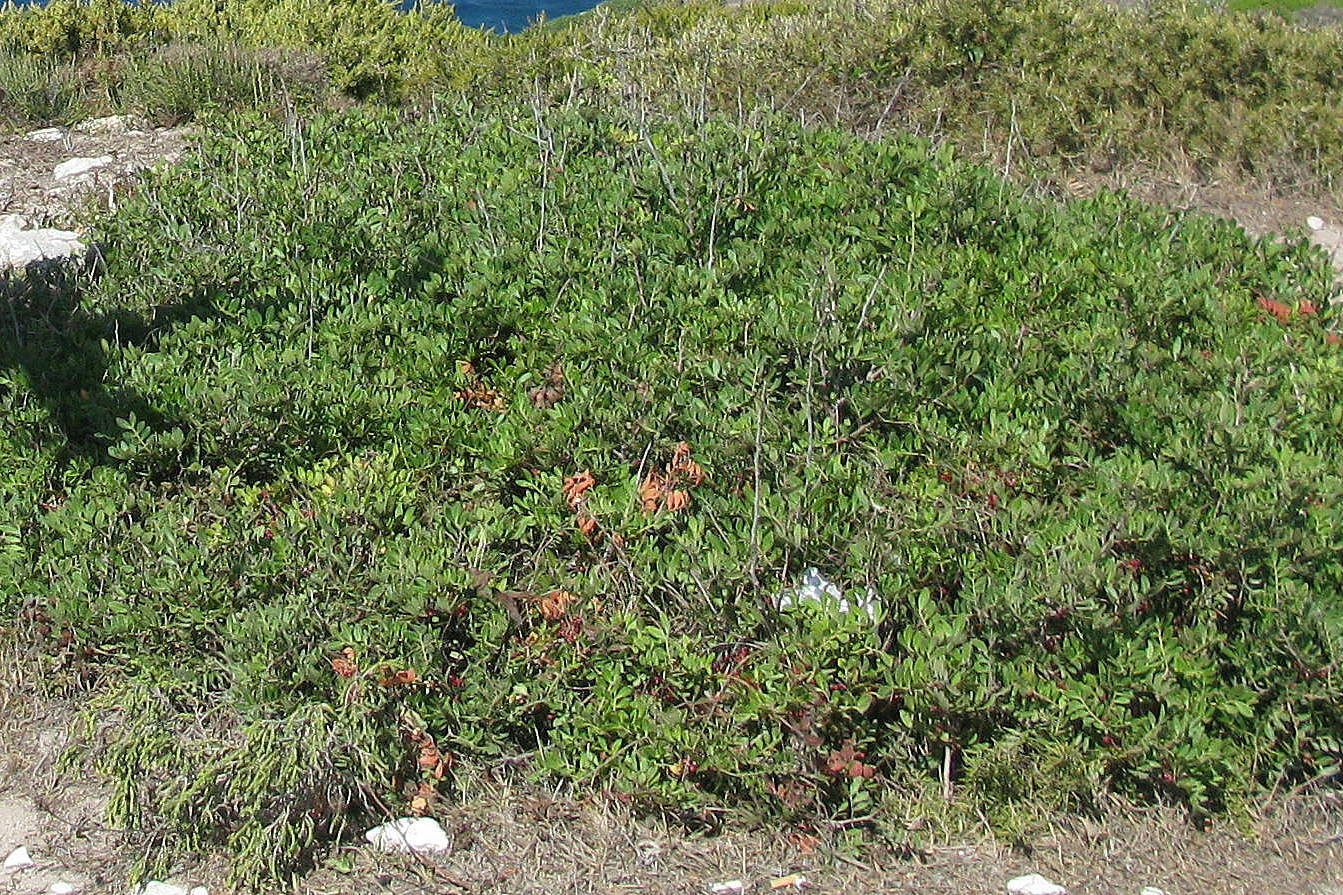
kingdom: Plantae
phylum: Tracheophyta
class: Magnoliopsida
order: Sapindales
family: Anacardiaceae
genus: Pistacia
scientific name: Pistacia lentiscus
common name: Lentisk
